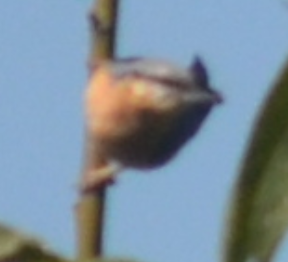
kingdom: Animalia
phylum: Chordata
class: Aves
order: Passeriformes
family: Sittidae
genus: Sitta
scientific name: Sitta europaea
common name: Eurasian nuthatch
